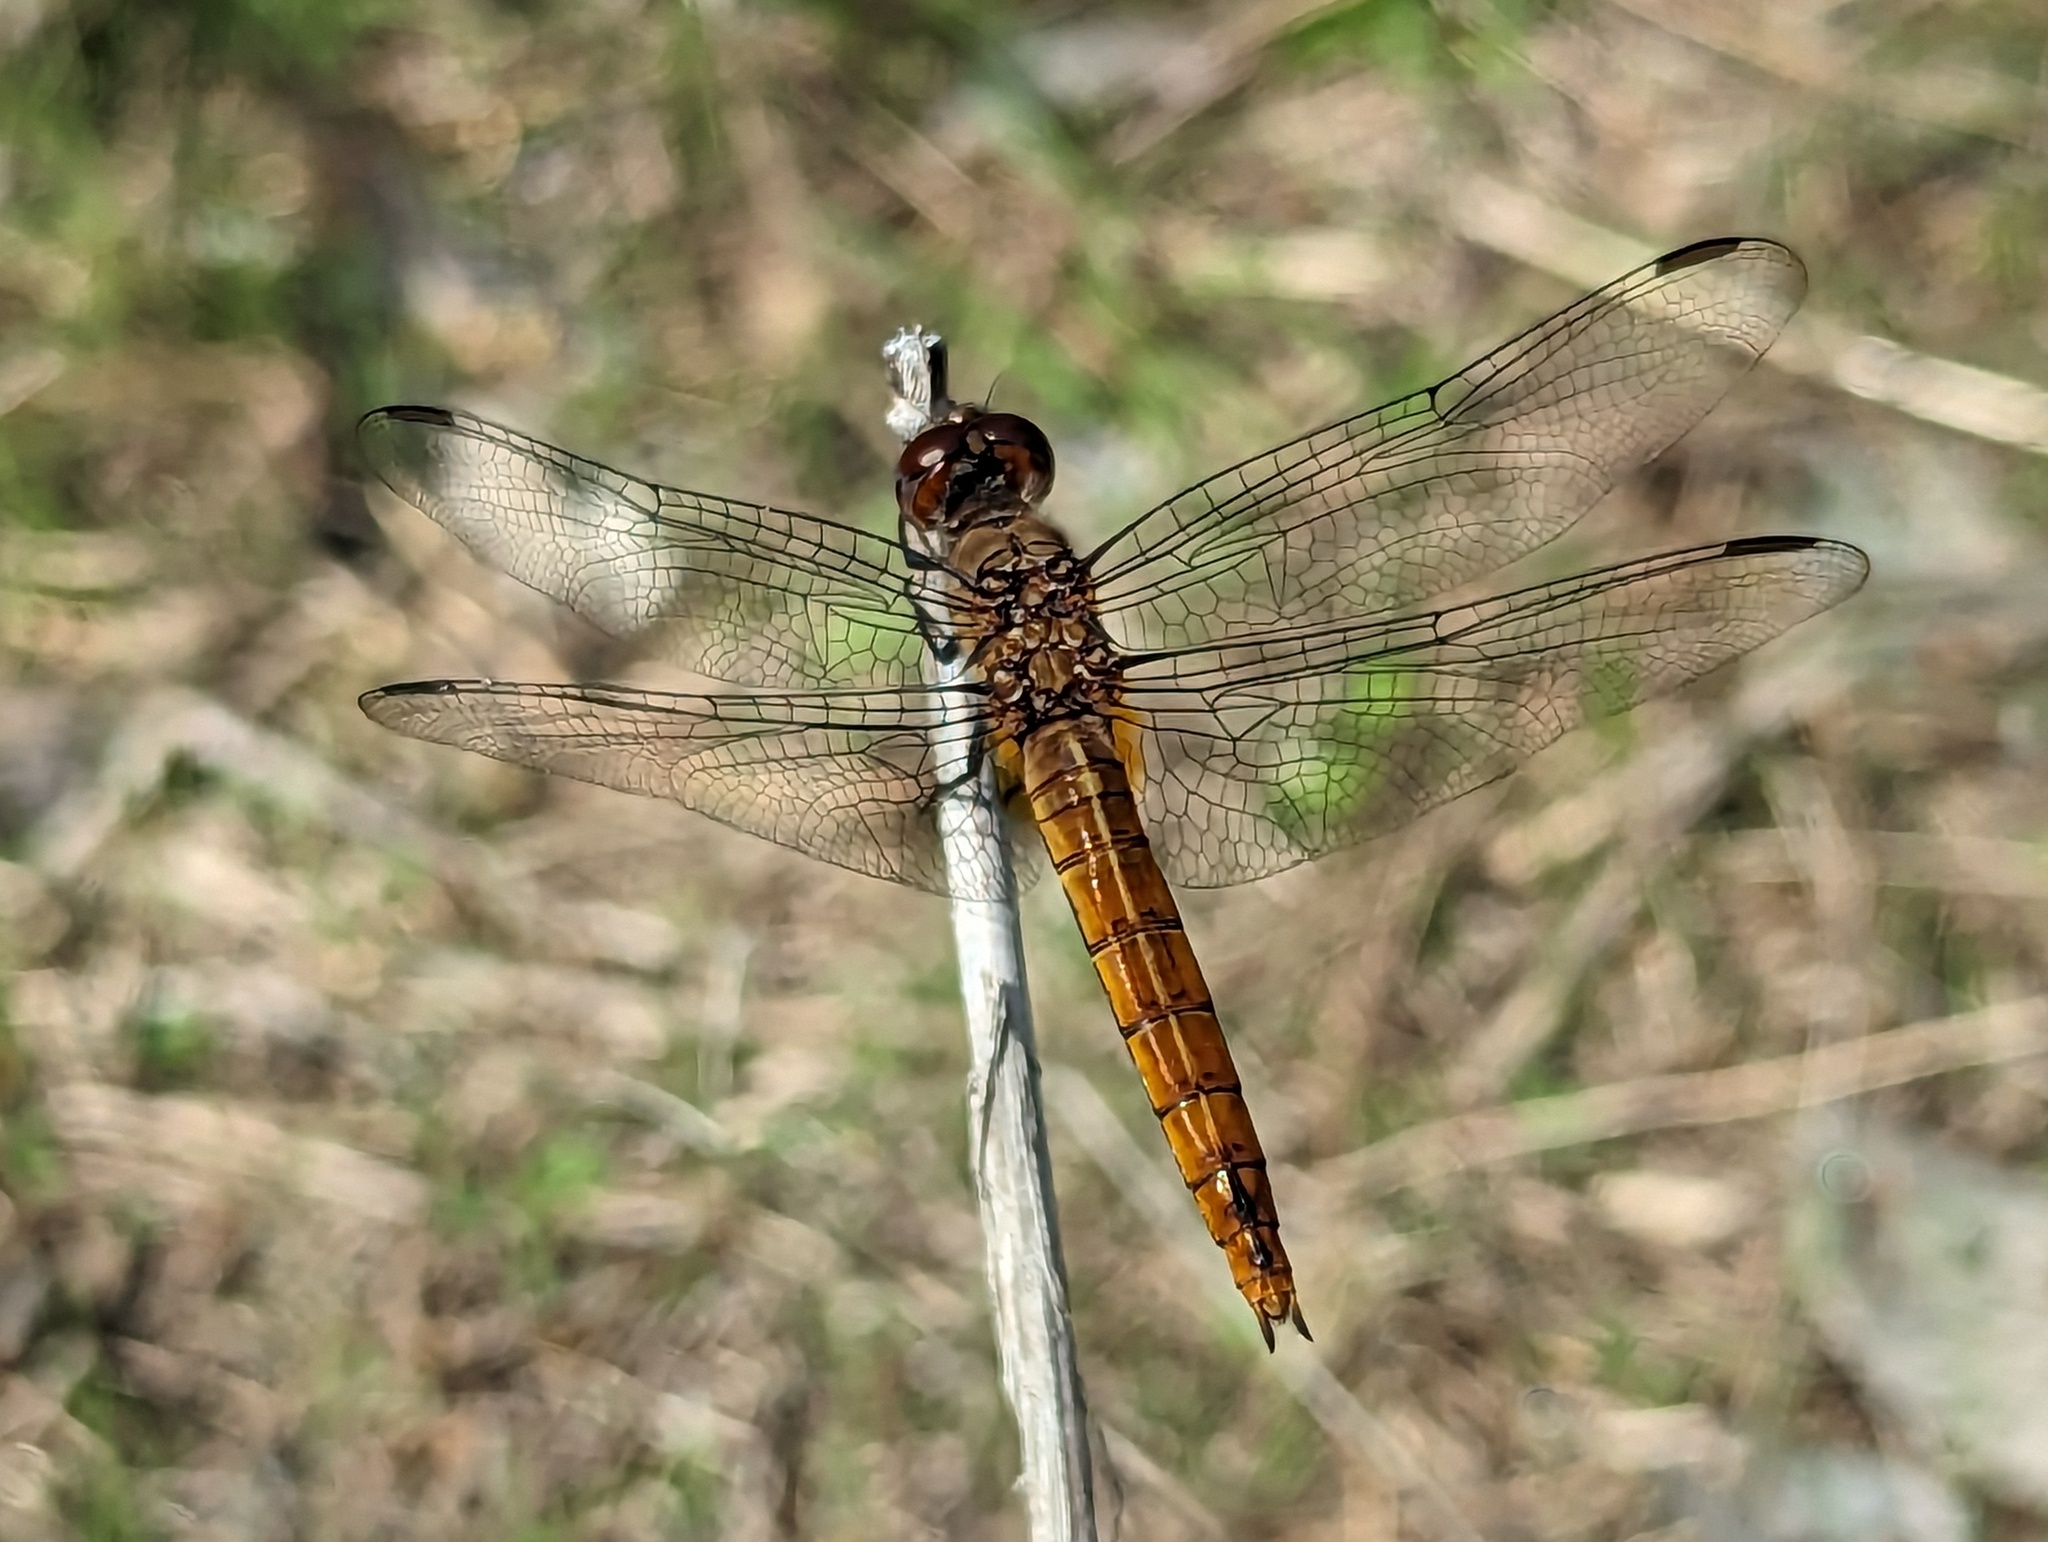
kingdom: Animalia
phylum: Arthropoda
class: Insecta
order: Odonata
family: Libellulidae
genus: Brachymesia
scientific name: Brachymesia furcata
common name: Red-taled pennant
